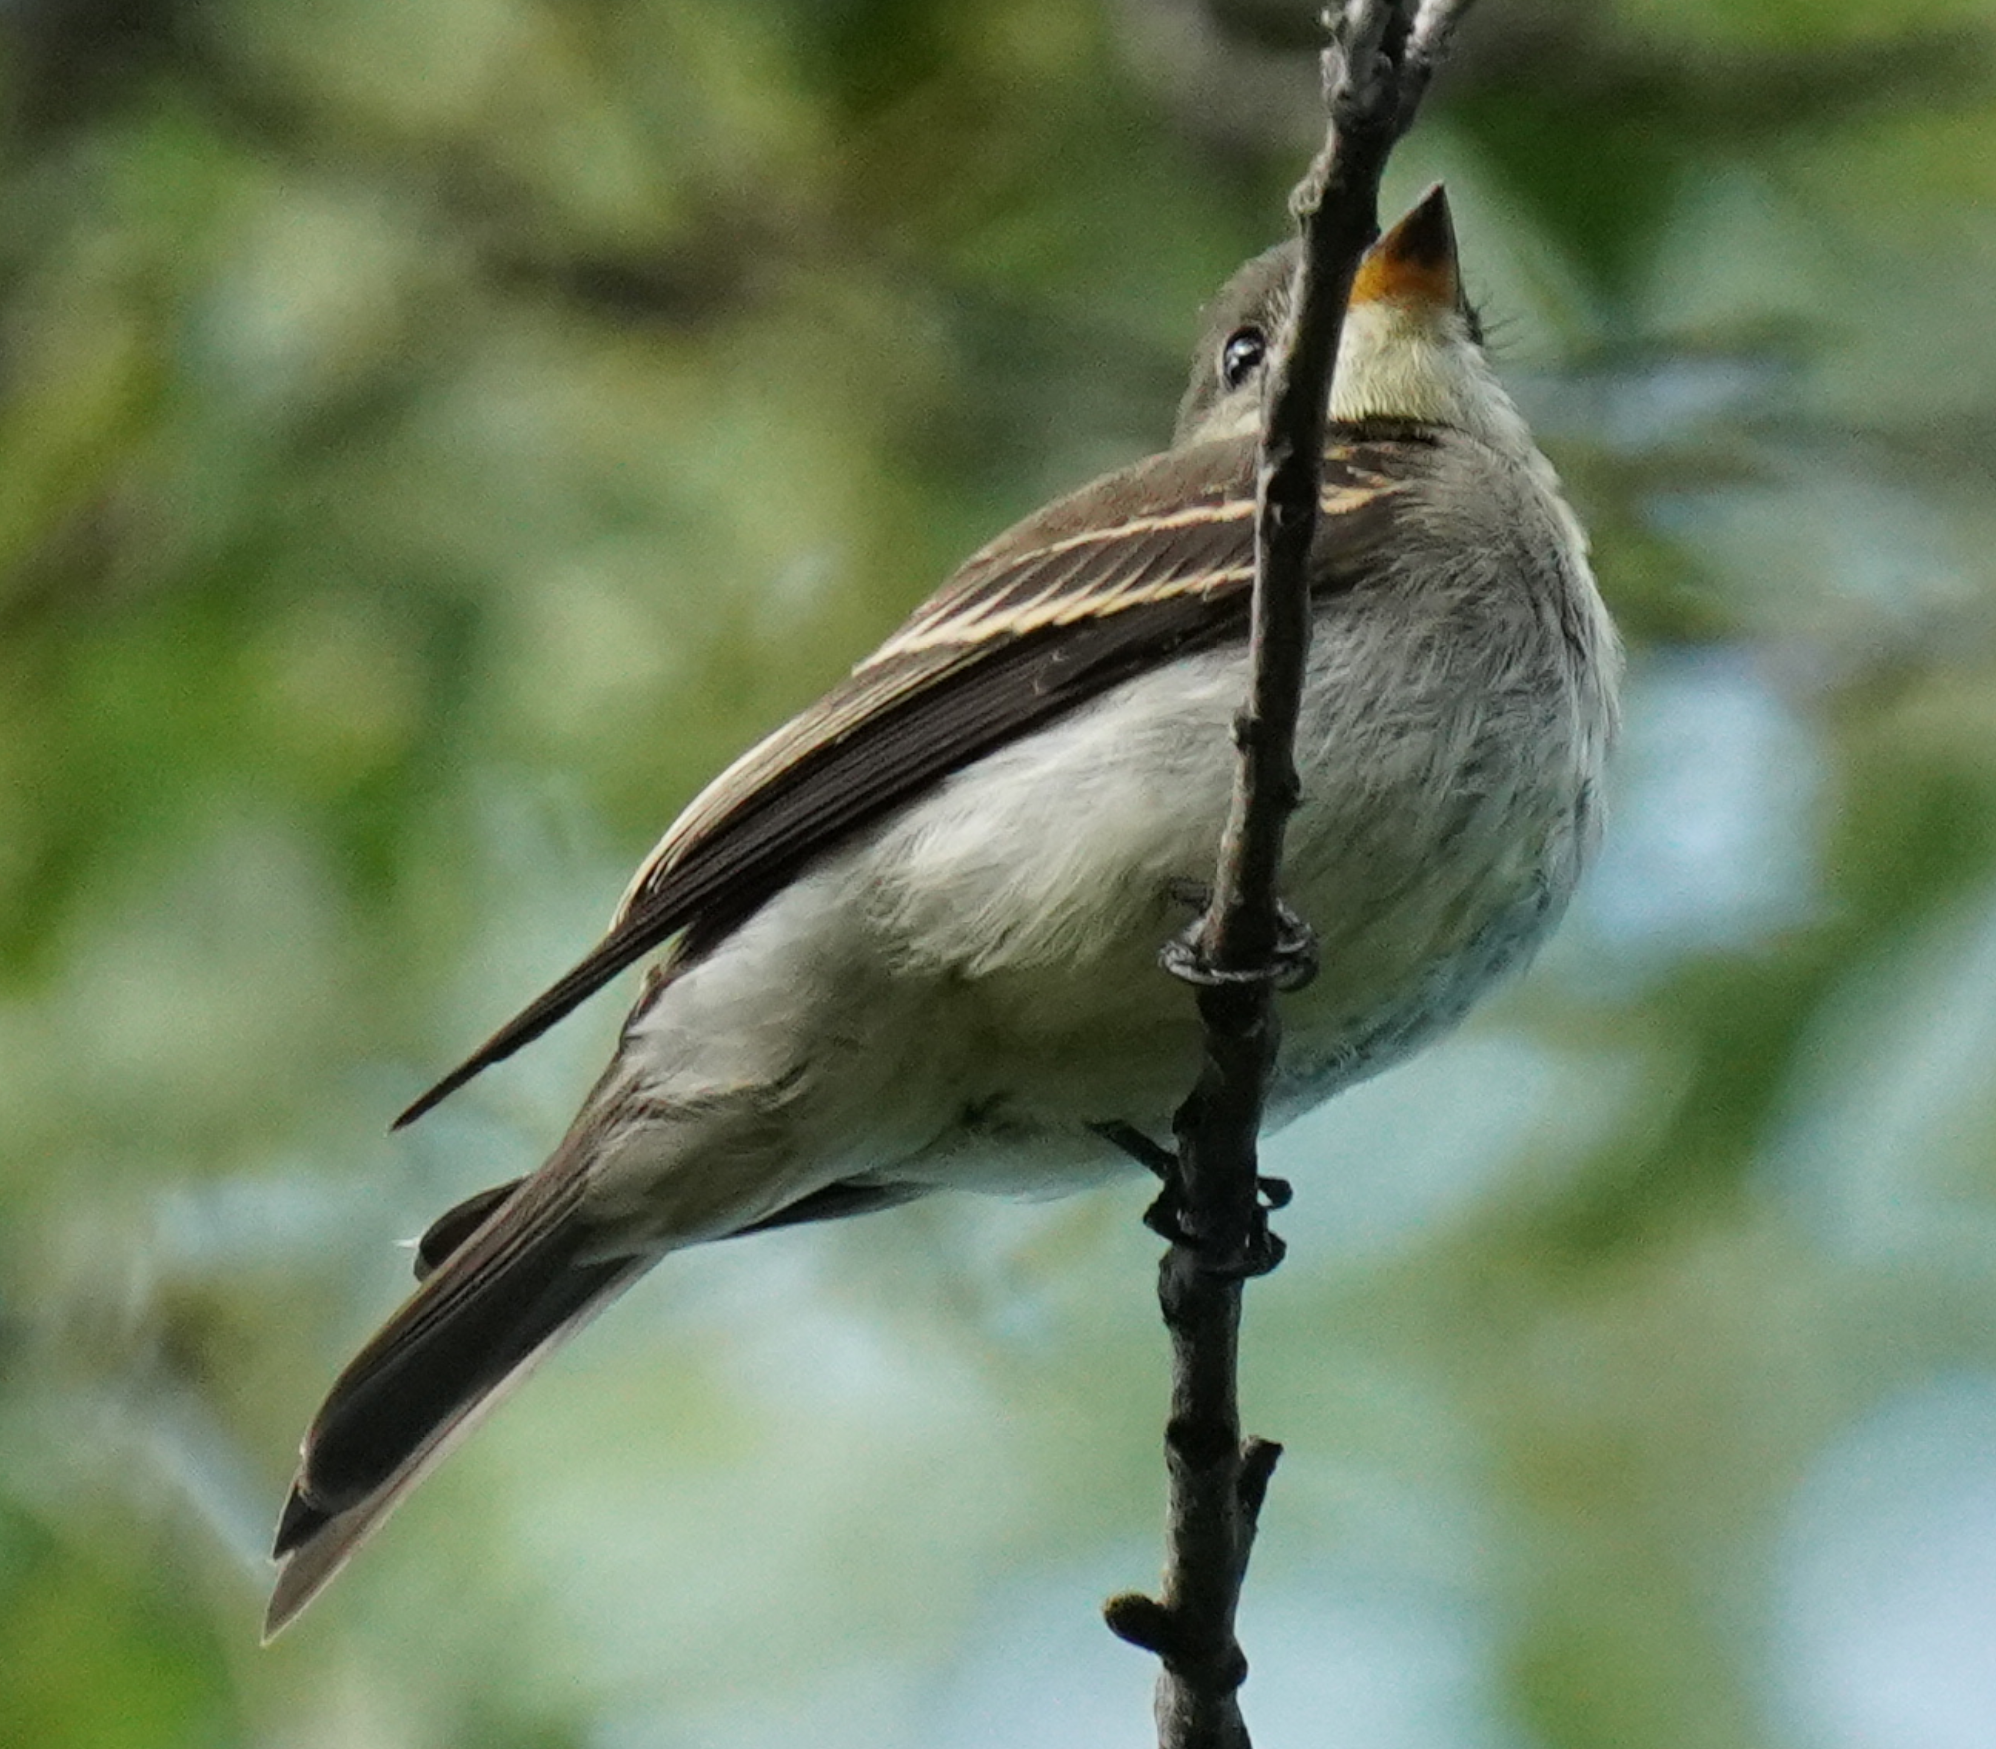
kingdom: Animalia
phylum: Chordata
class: Aves
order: Passeriformes
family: Tyrannidae
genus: Contopus
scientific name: Contopus virens
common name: Eastern wood-pewee
